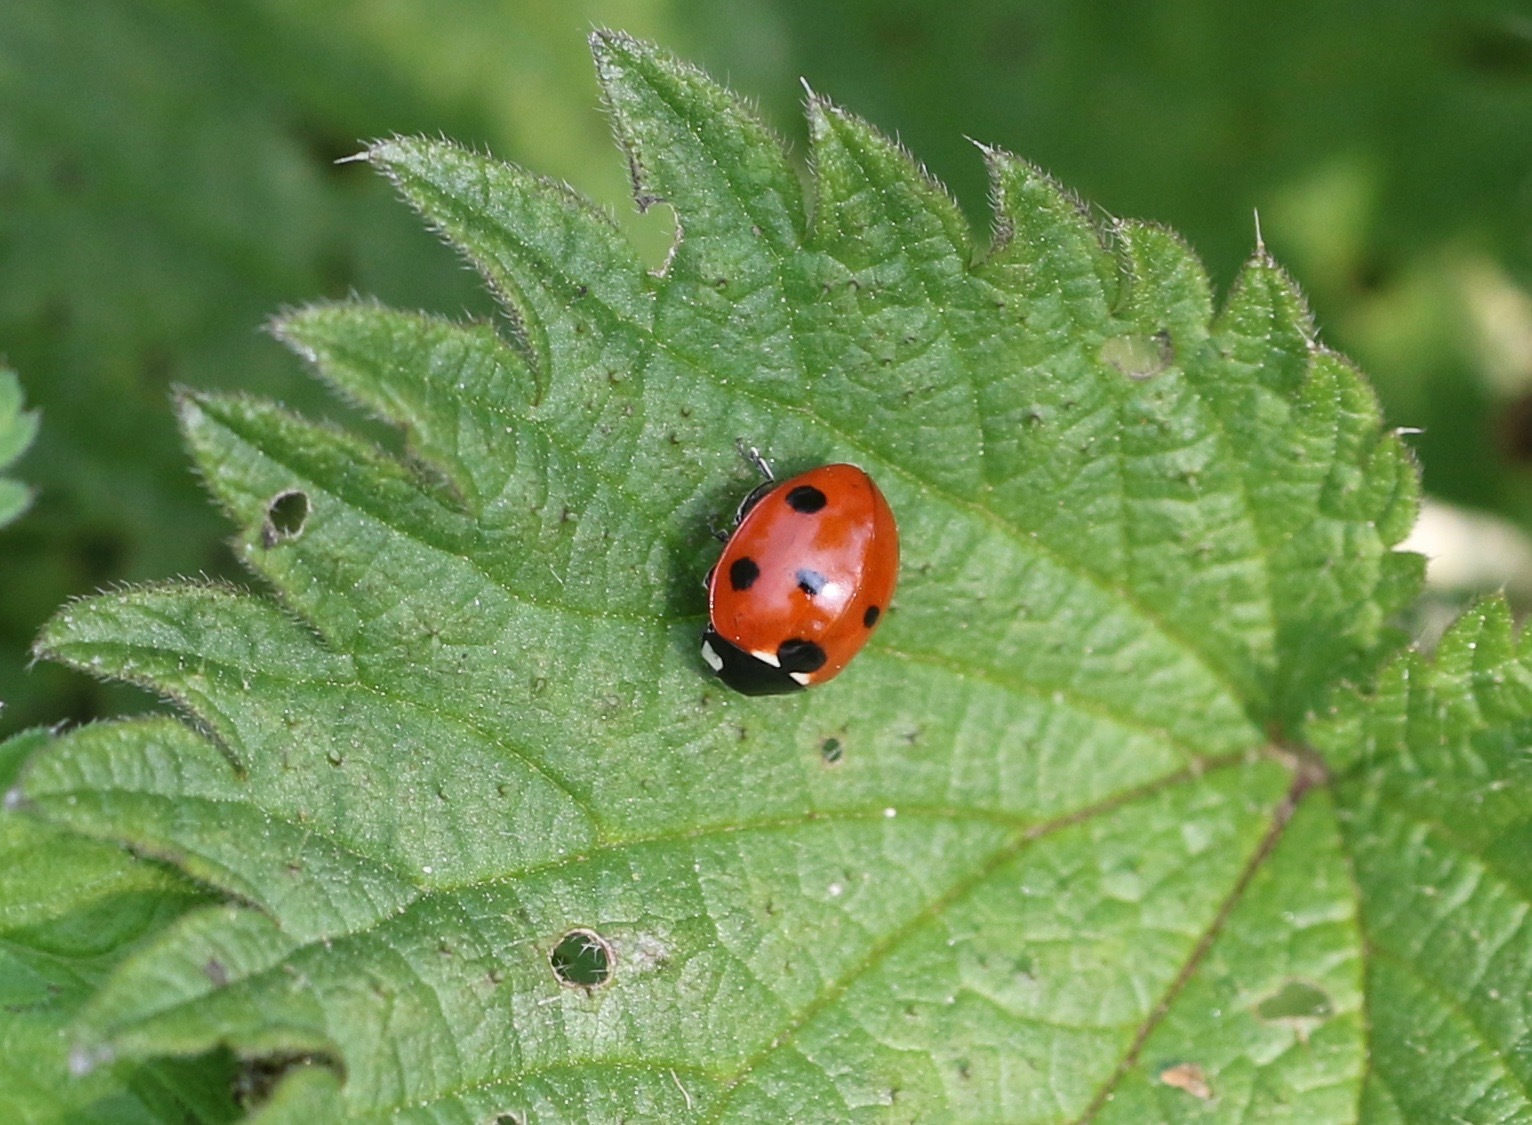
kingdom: Animalia
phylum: Arthropoda
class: Insecta
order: Coleoptera
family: Coccinellidae
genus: Coccinella
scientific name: Coccinella septempunctata
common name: Sevenspotted lady beetle
